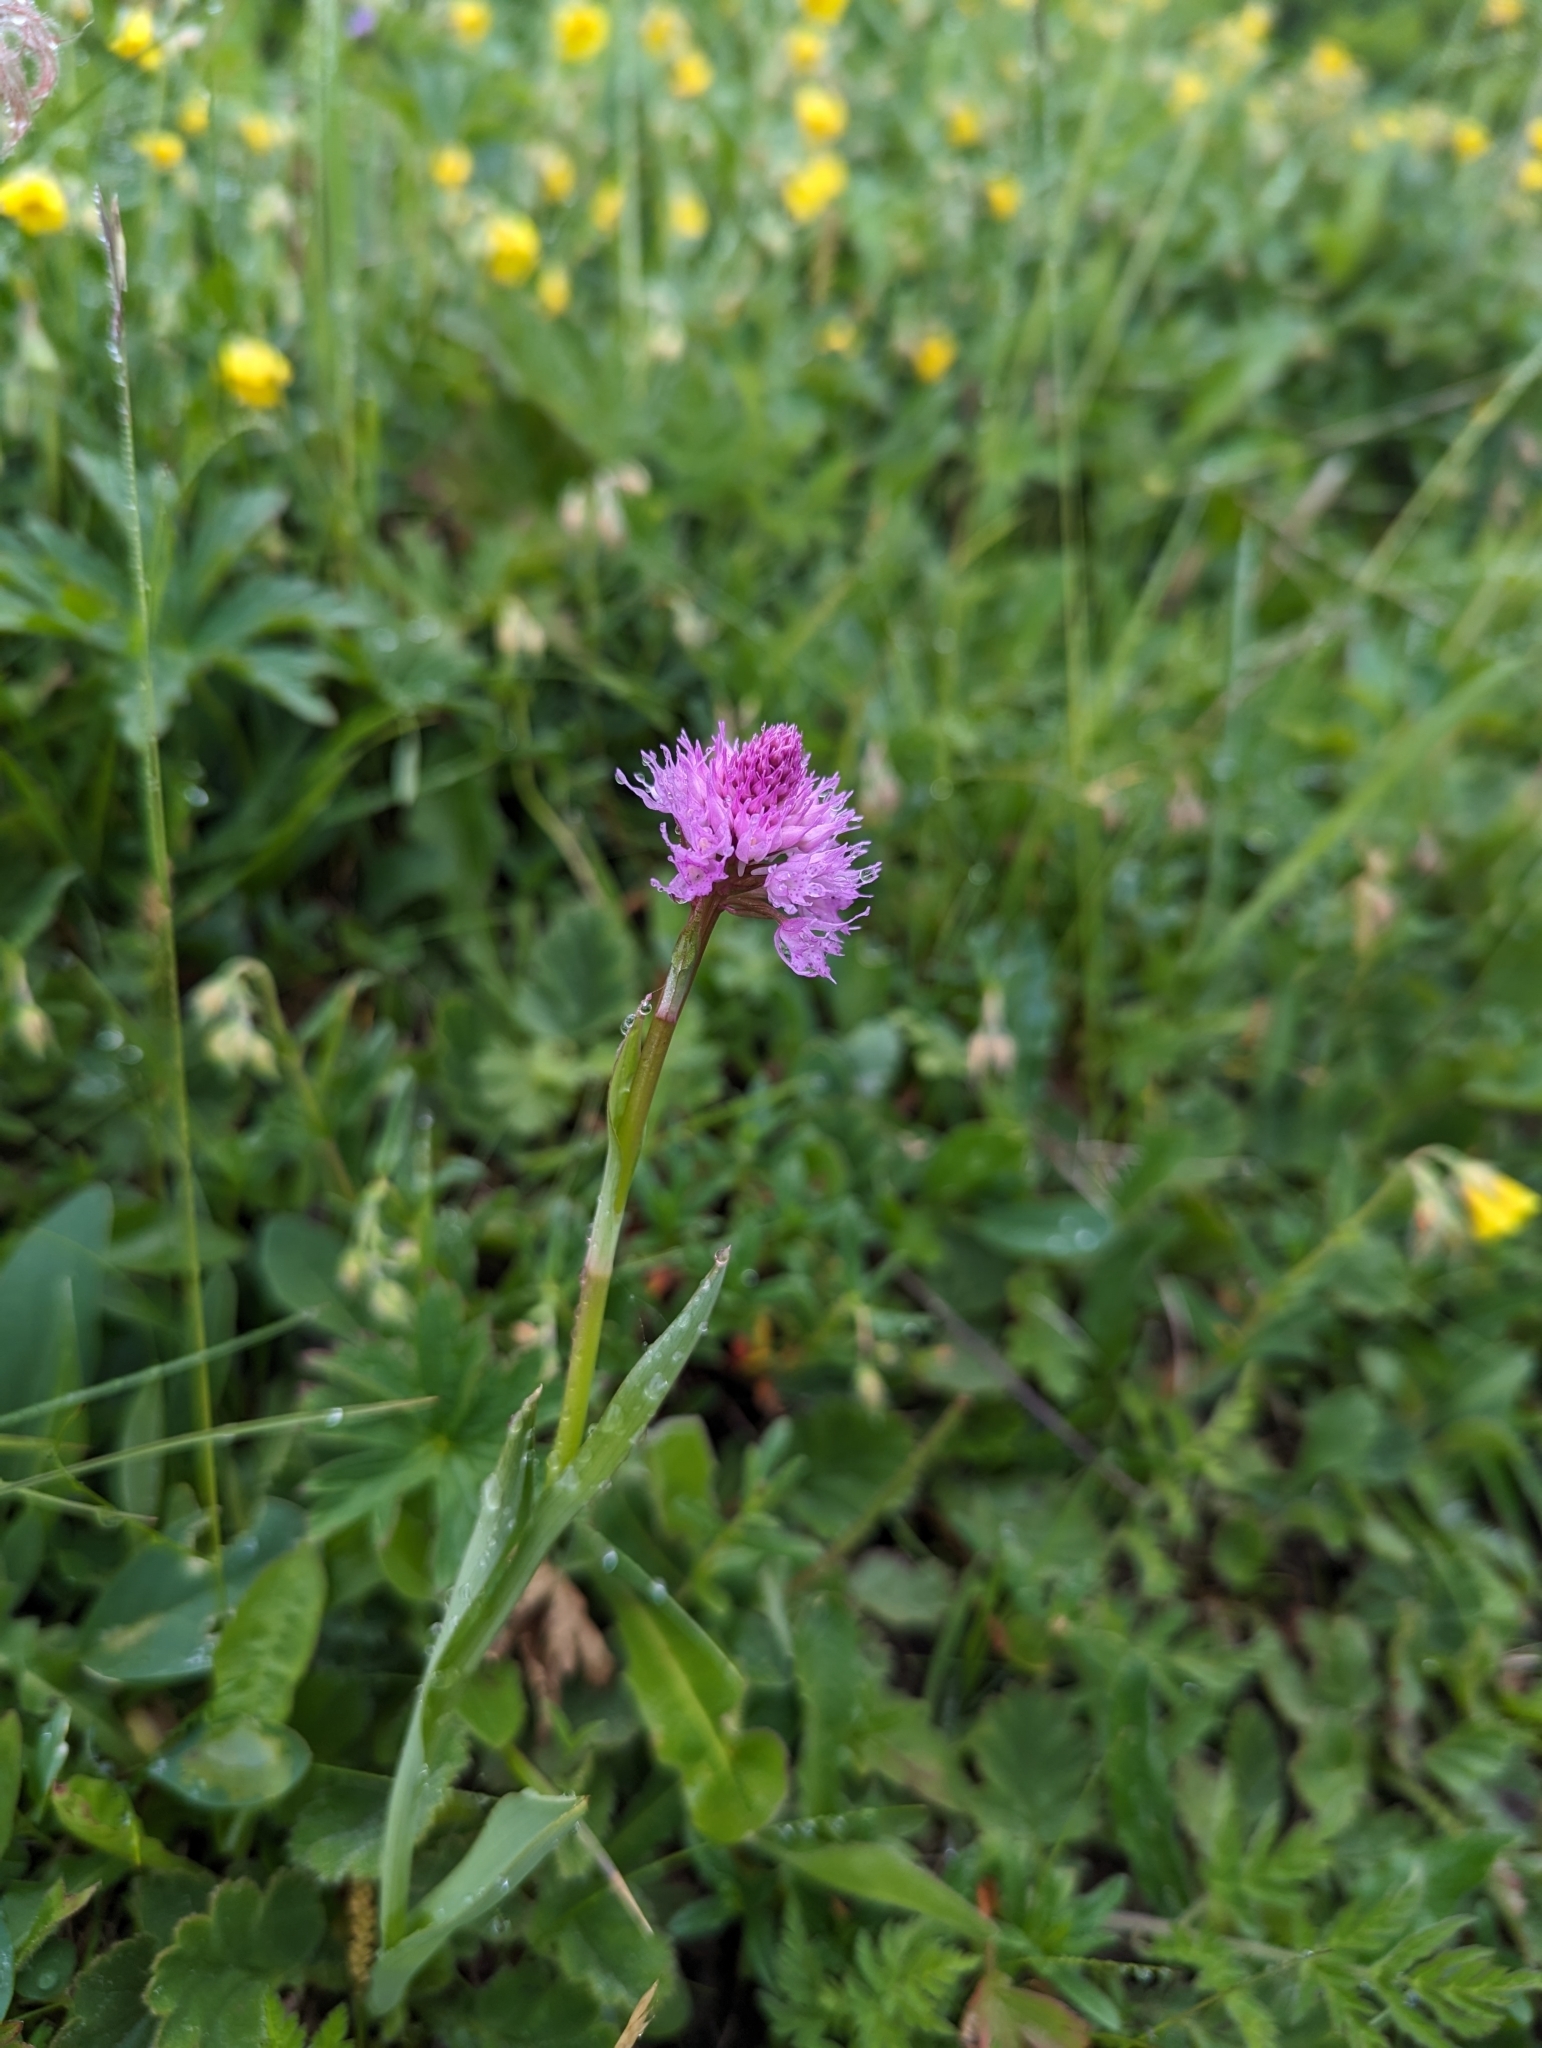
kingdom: Plantae
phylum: Tracheophyta
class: Liliopsida
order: Asparagales
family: Orchidaceae
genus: Traunsteinera
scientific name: Traunsteinera globosa
